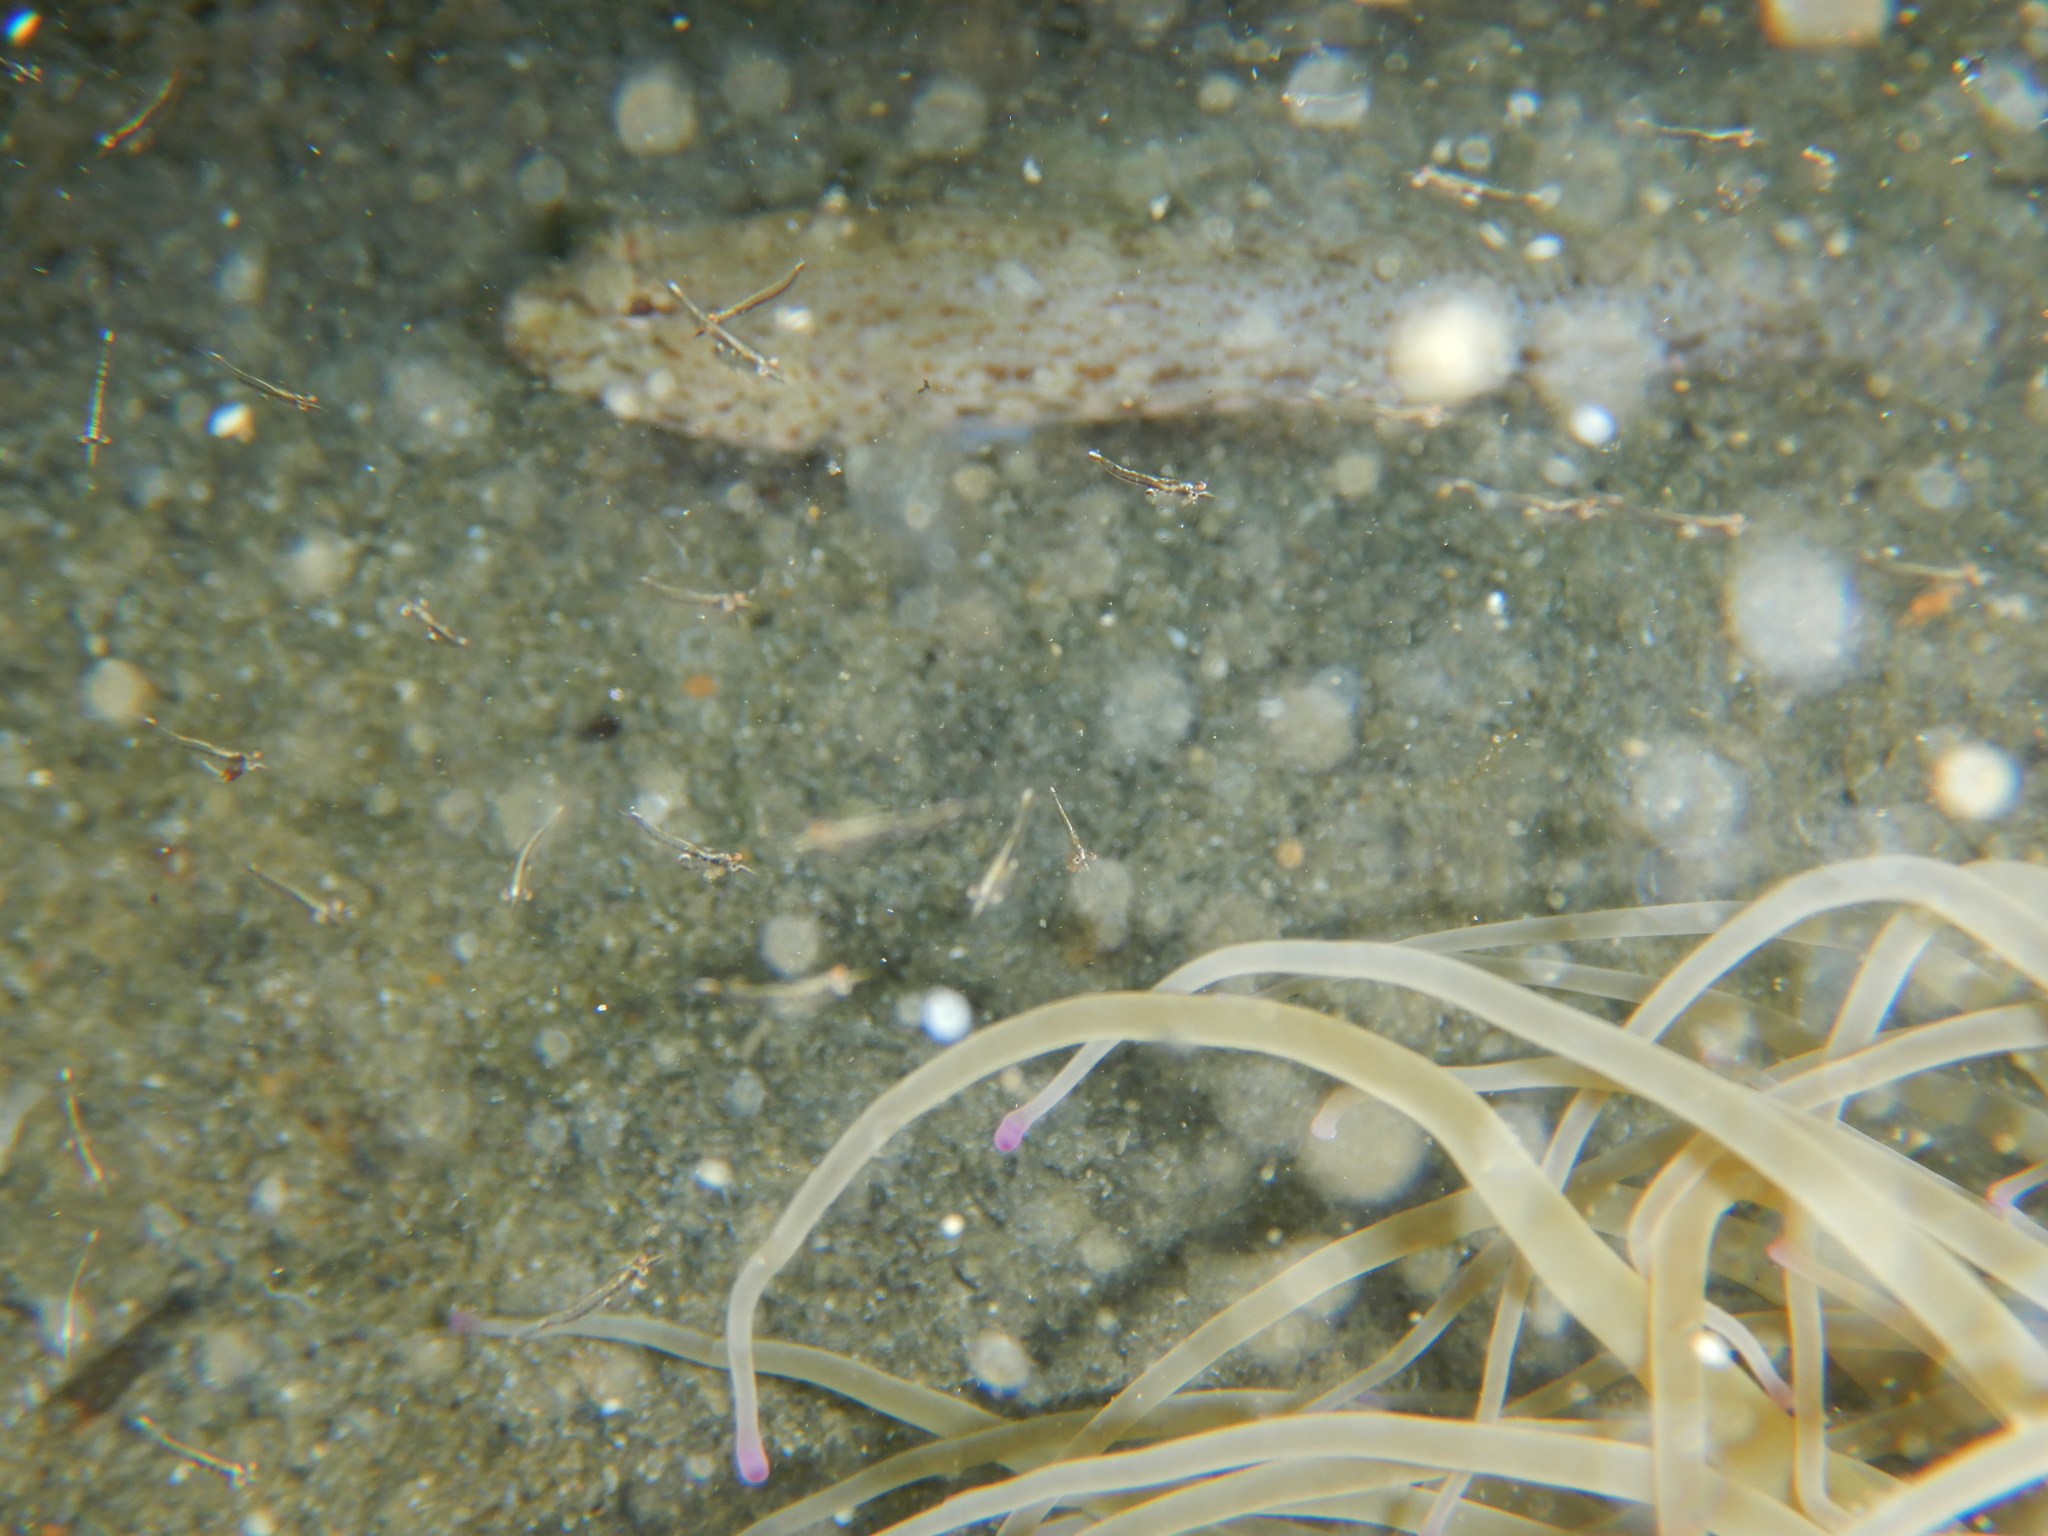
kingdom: Animalia
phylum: Arthropoda
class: Malacostraca
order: Mysida
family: Mysidae
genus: Leptomysis
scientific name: Leptomysis buergii
